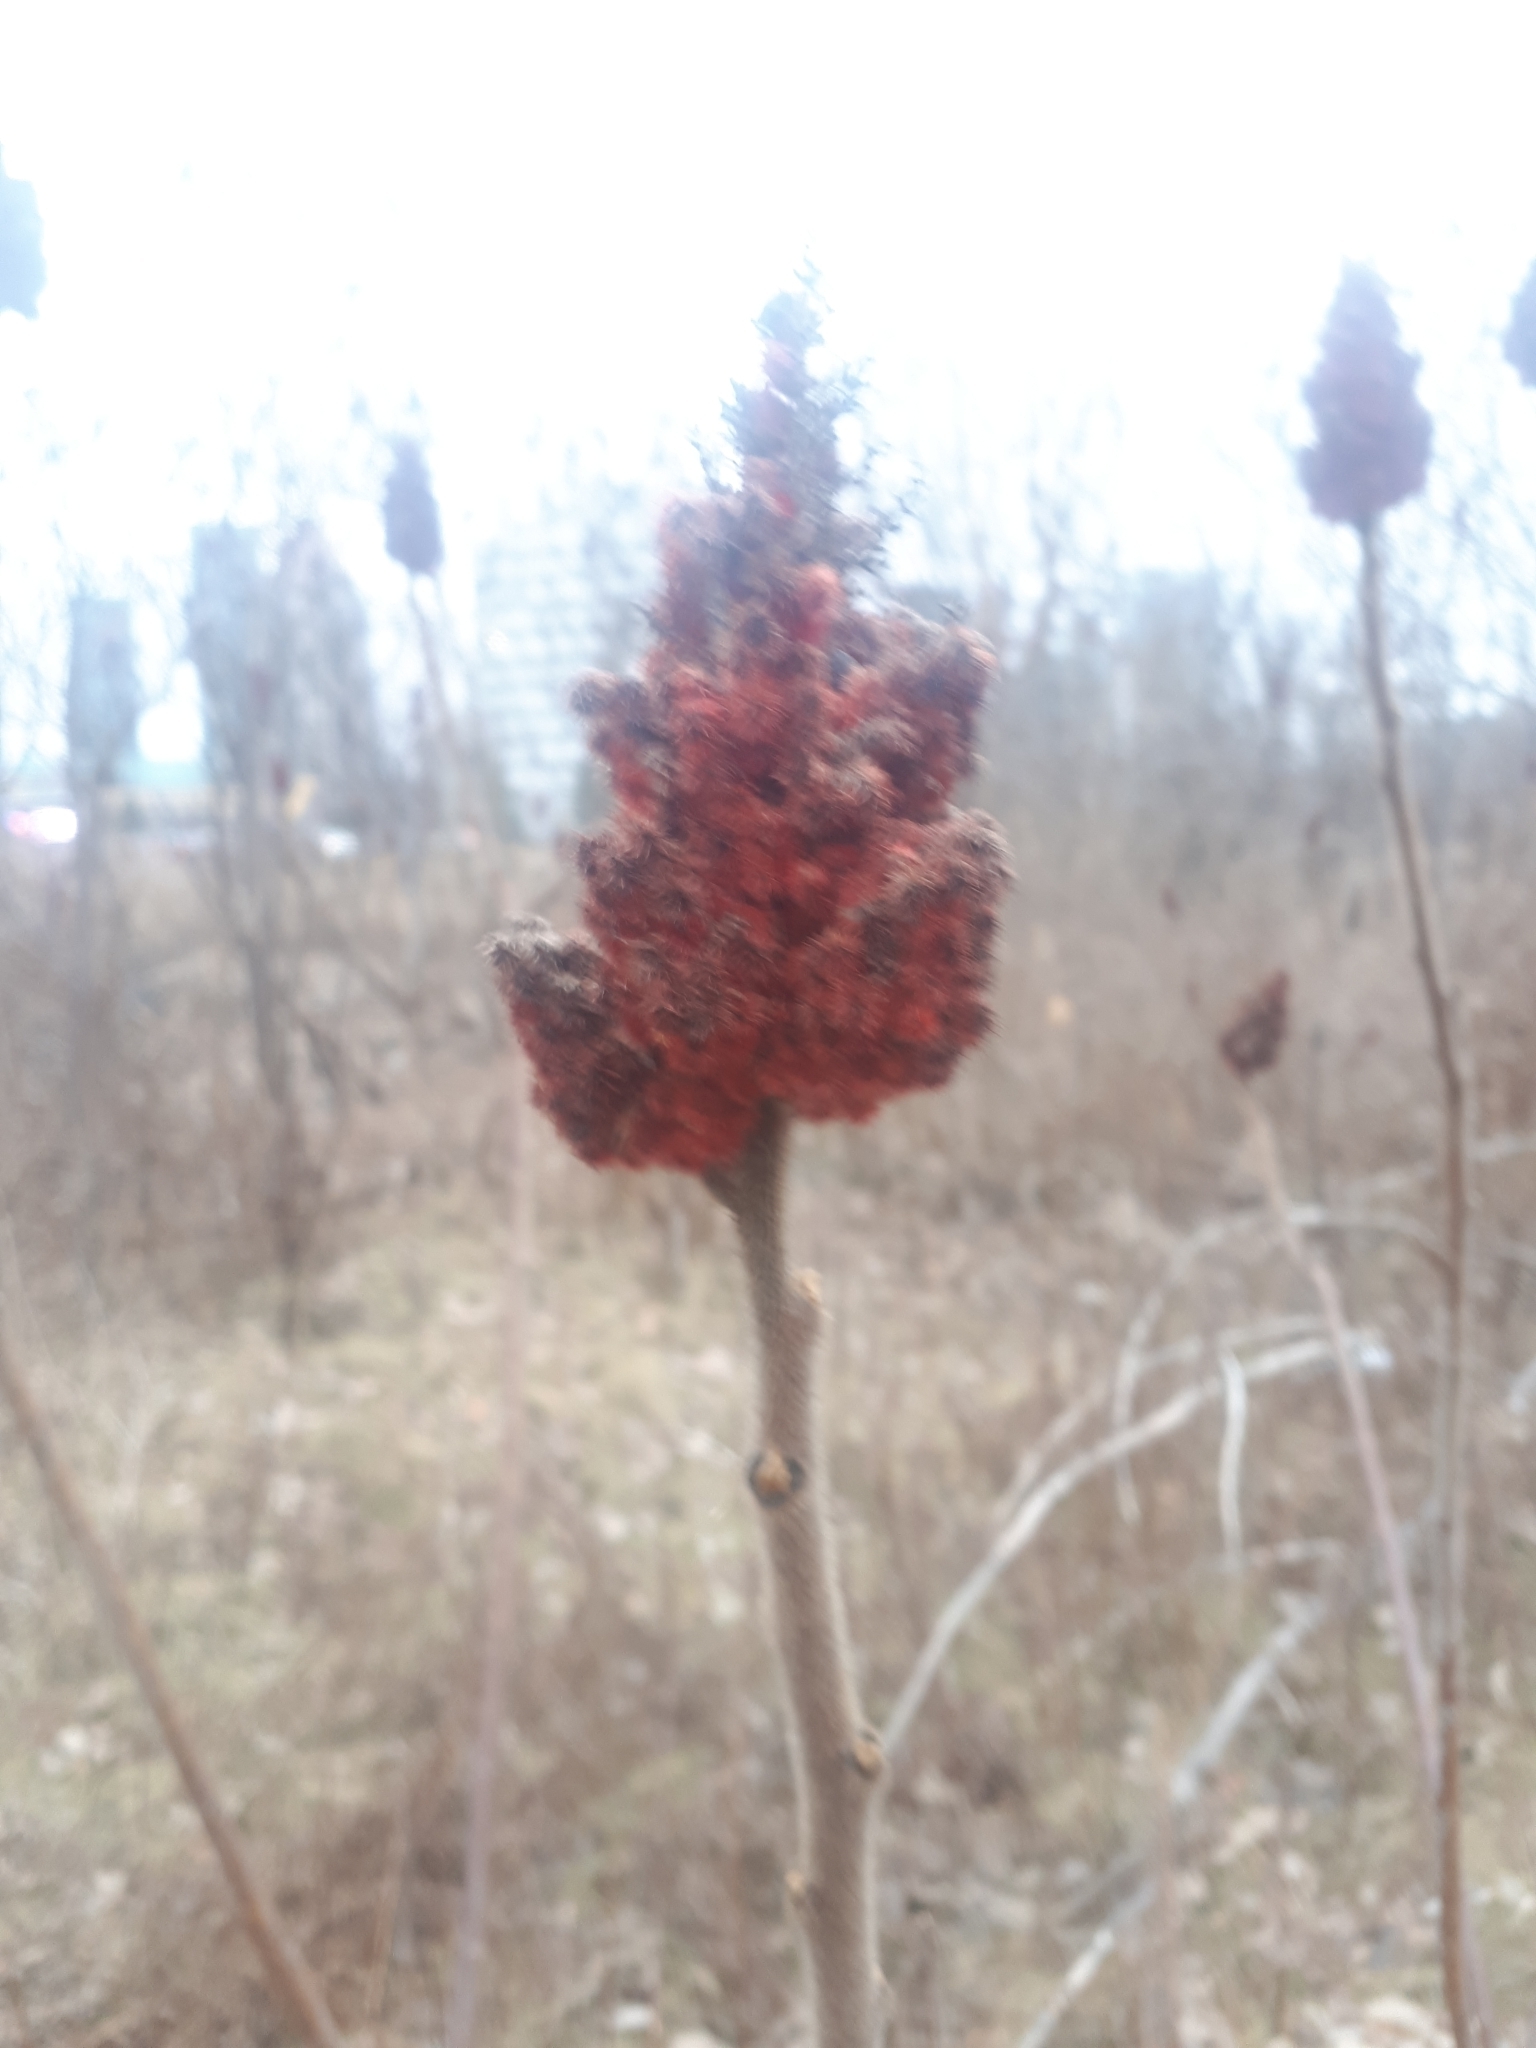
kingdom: Plantae
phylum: Tracheophyta
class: Magnoliopsida
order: Sapindales
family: Anacardiaceae
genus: Rhus
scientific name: Rhus typhina
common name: Staghorn sumac
